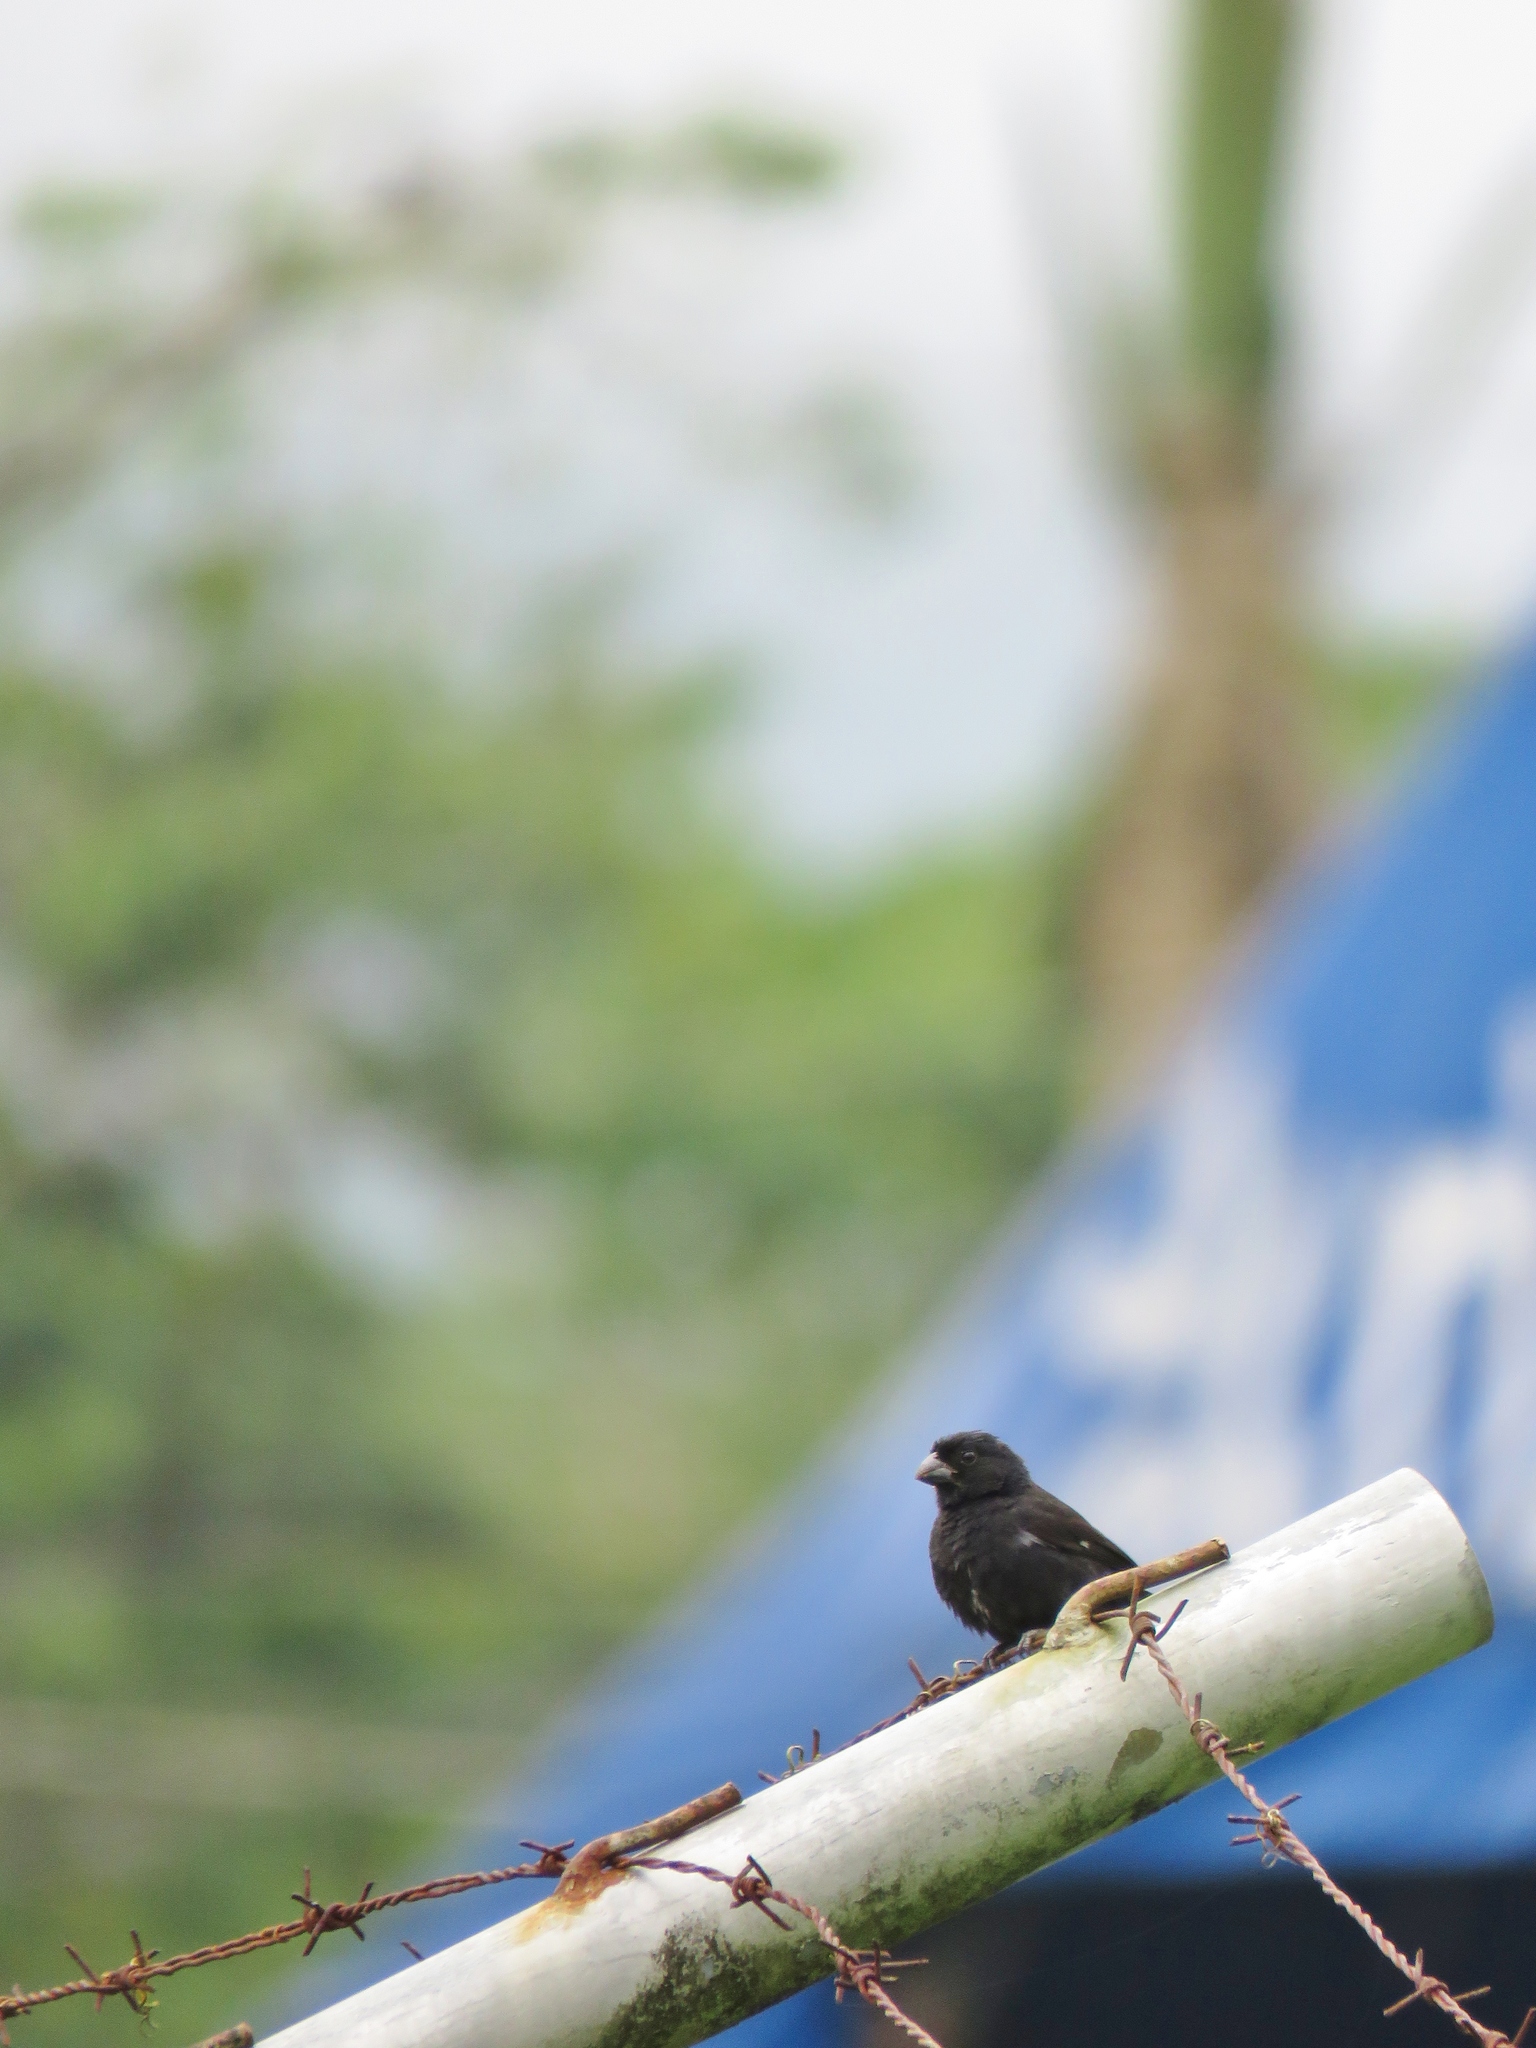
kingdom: Animalia
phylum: Chordata
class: Aves
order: Passeriformes
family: Thraupidae
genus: Sporophila
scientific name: Sporophila corvina
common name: Variable seedeater
